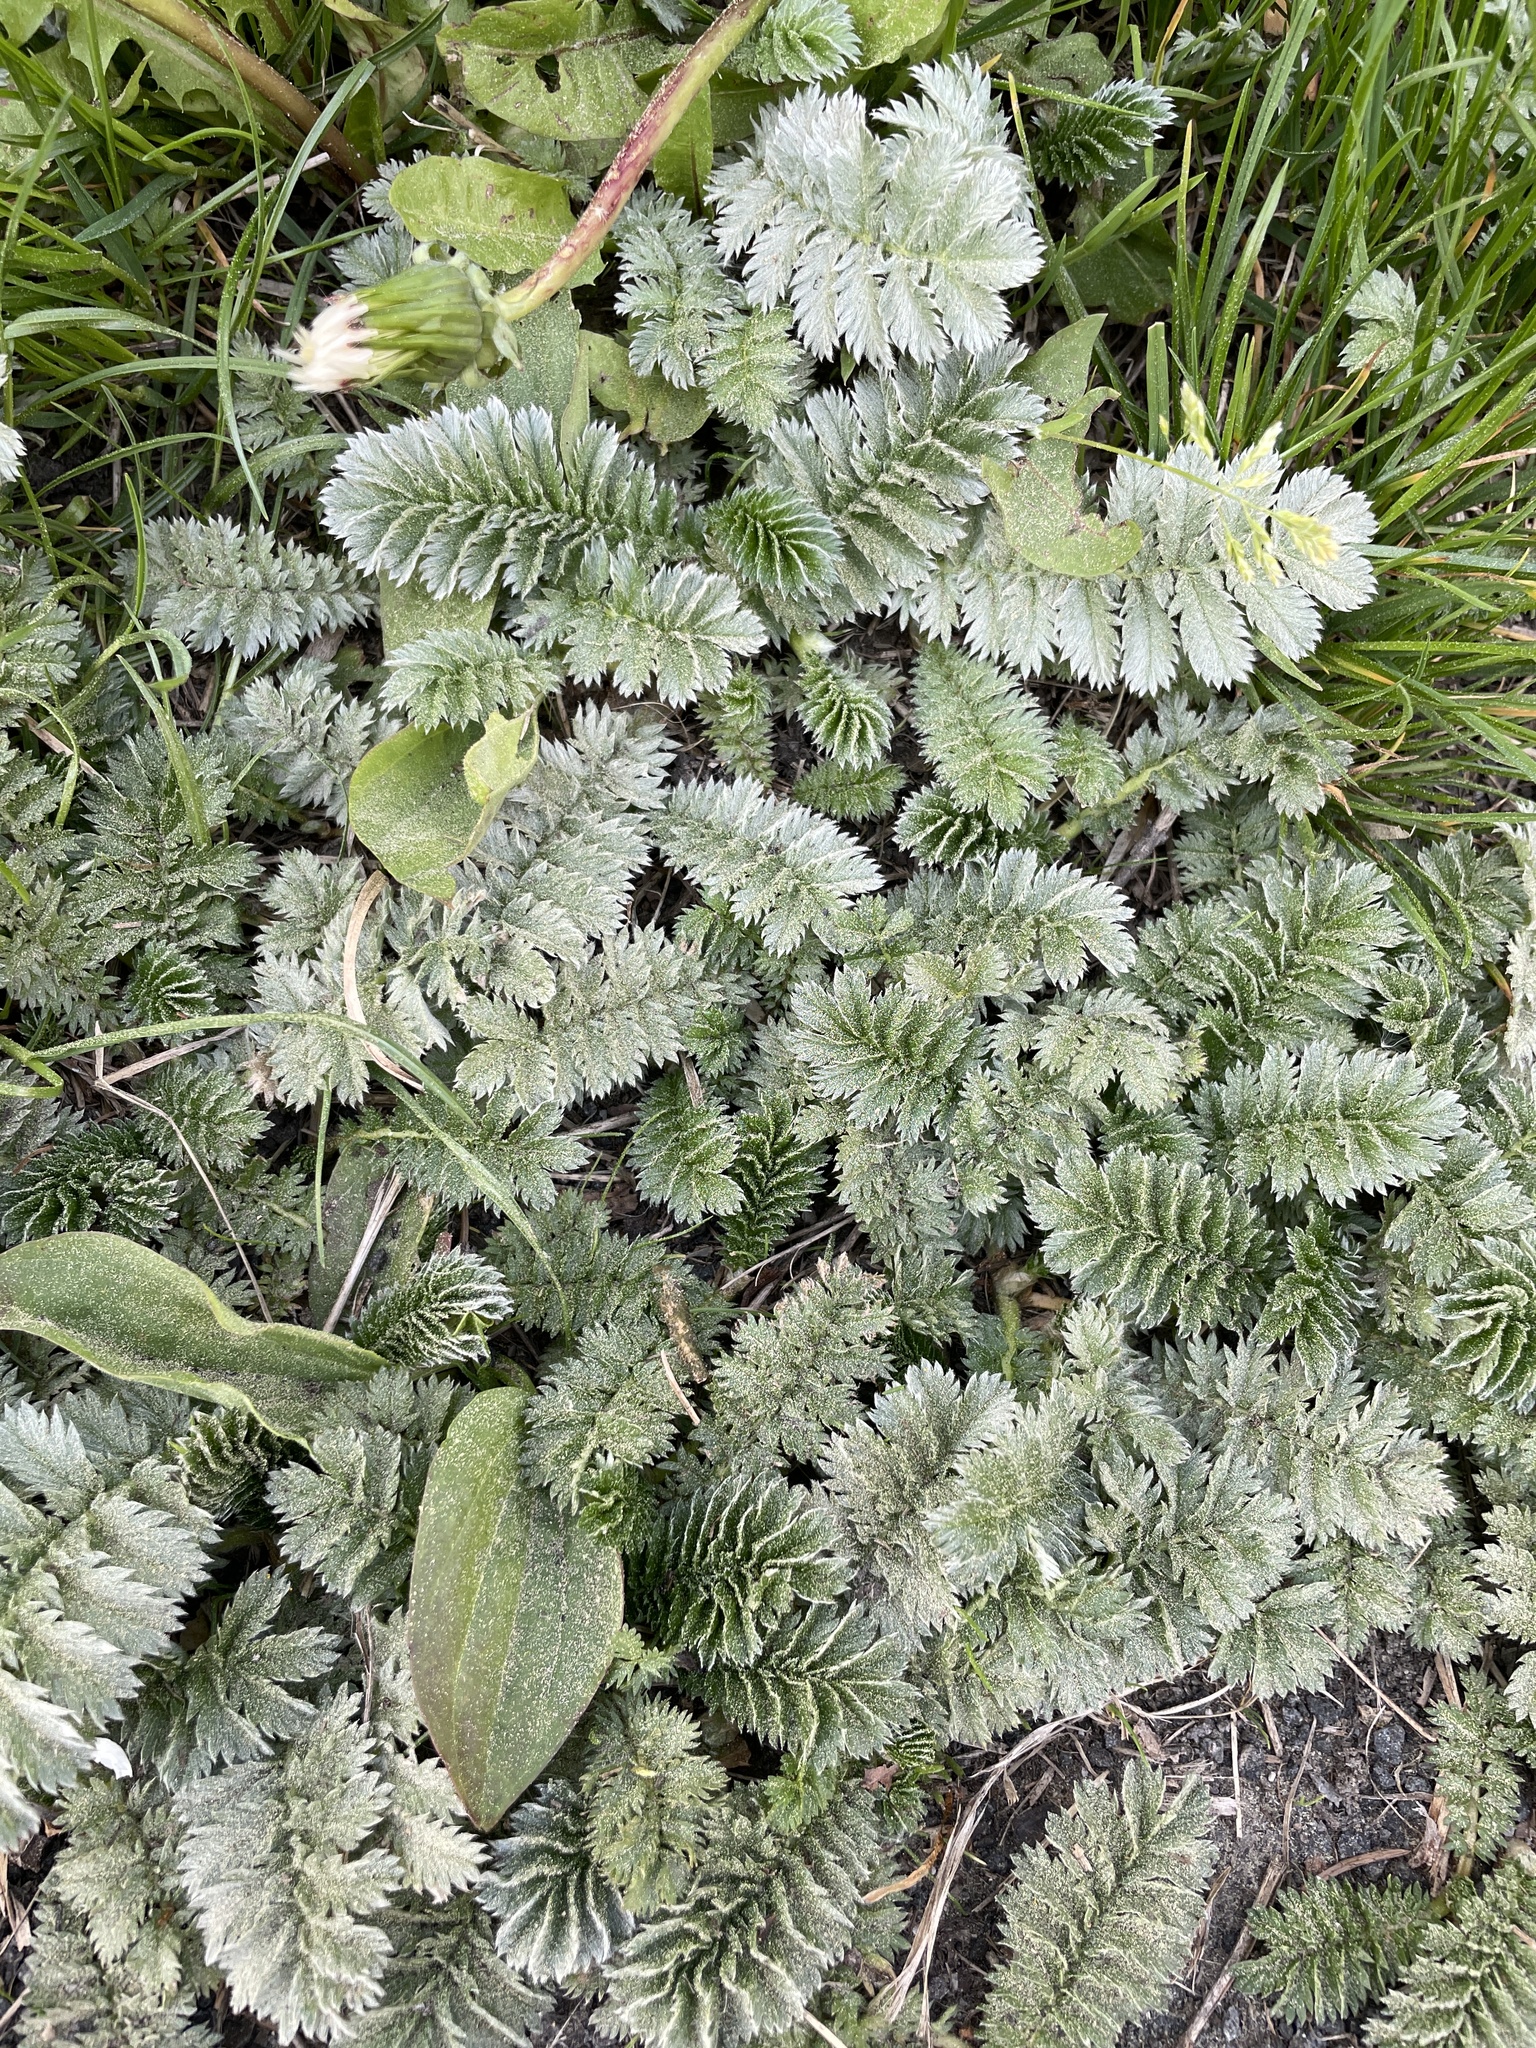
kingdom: Plantae
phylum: Tracheophyta
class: Magnoliopsida
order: Rosales
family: Rosaceae
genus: Argentina
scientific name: Argentina anserina
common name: Common silverweed
